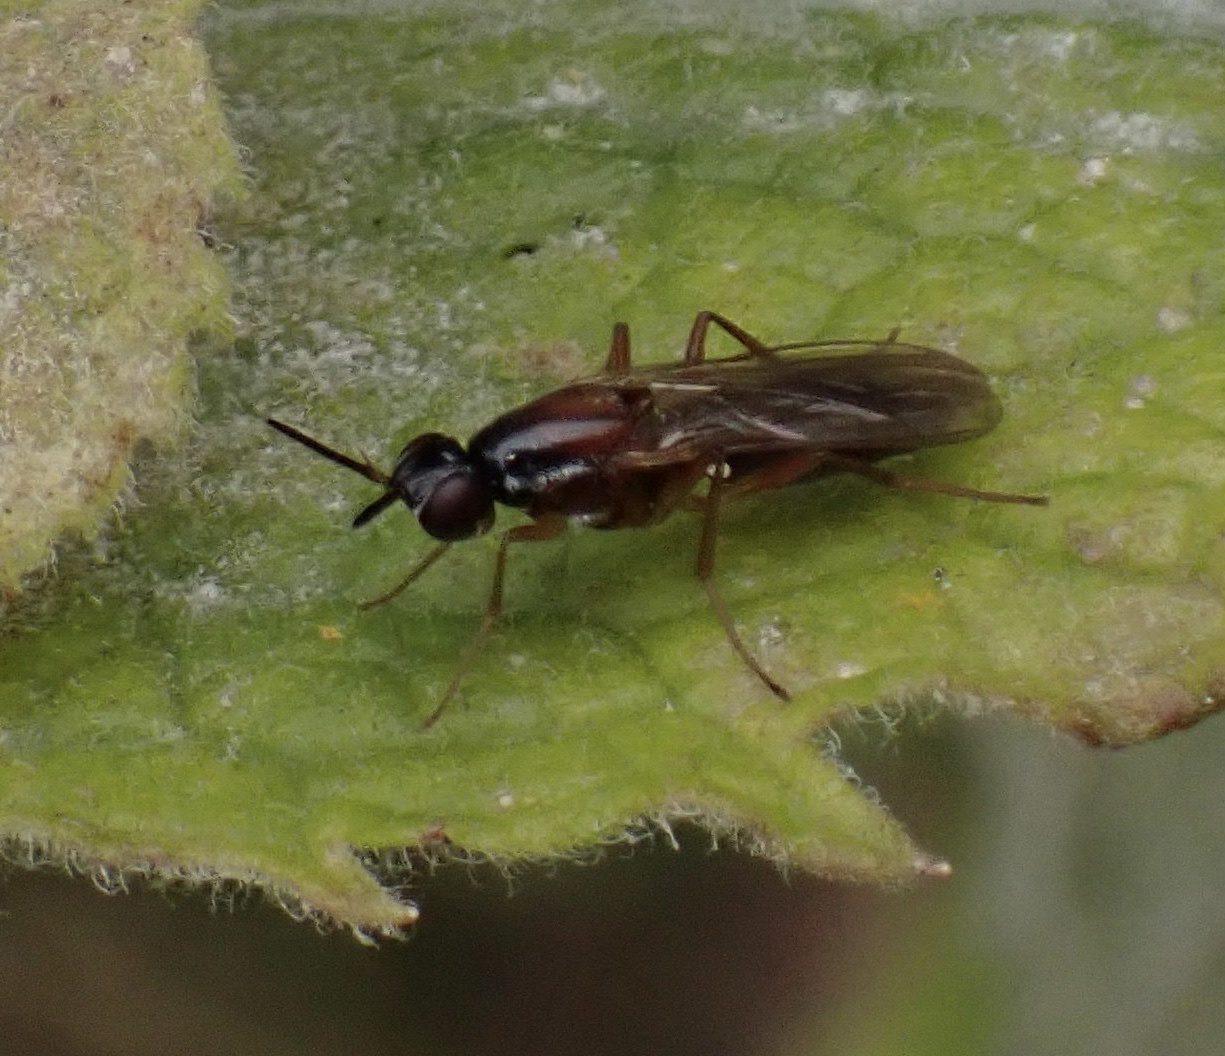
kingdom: Animalia
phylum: Arthropoda
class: Insecta
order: Diptera
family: Psilidae
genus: Loxocera
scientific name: Loxocera aristata
